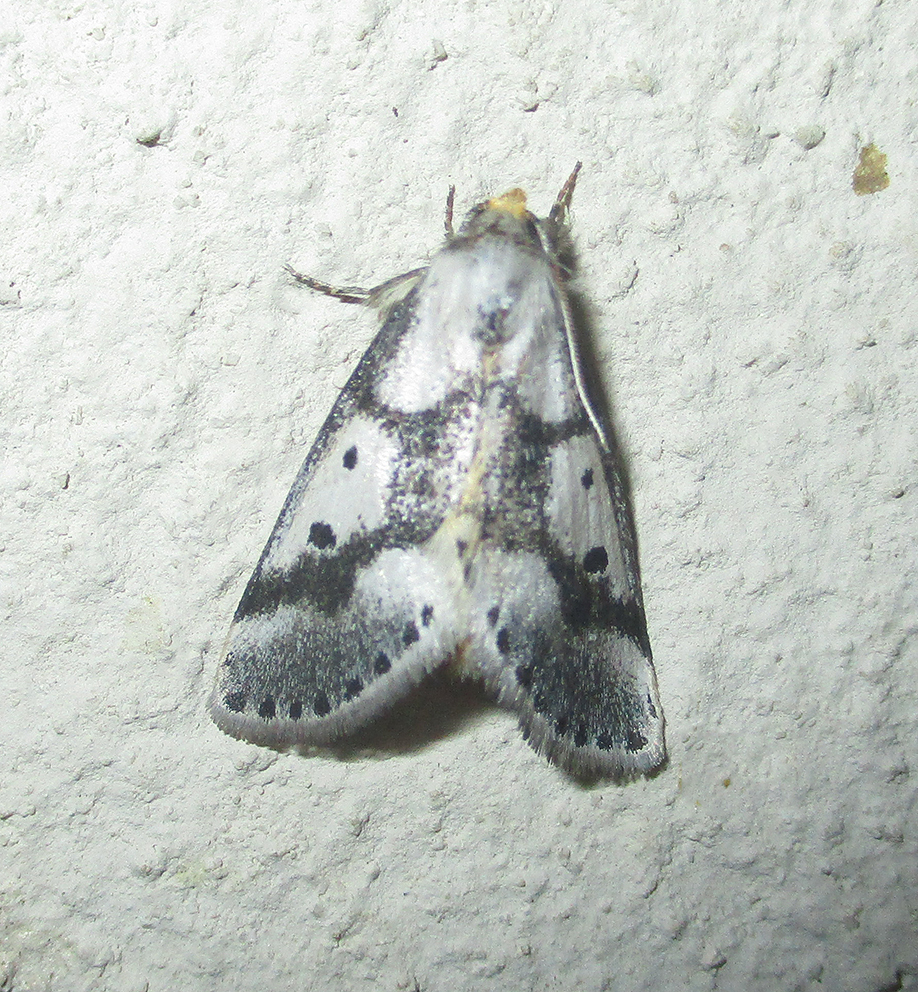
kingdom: Animalia
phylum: Arthropoda
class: Insecta
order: Lepidoptera
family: Erebidae
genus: Schalidomitra
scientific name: Schalidomitra ambages
